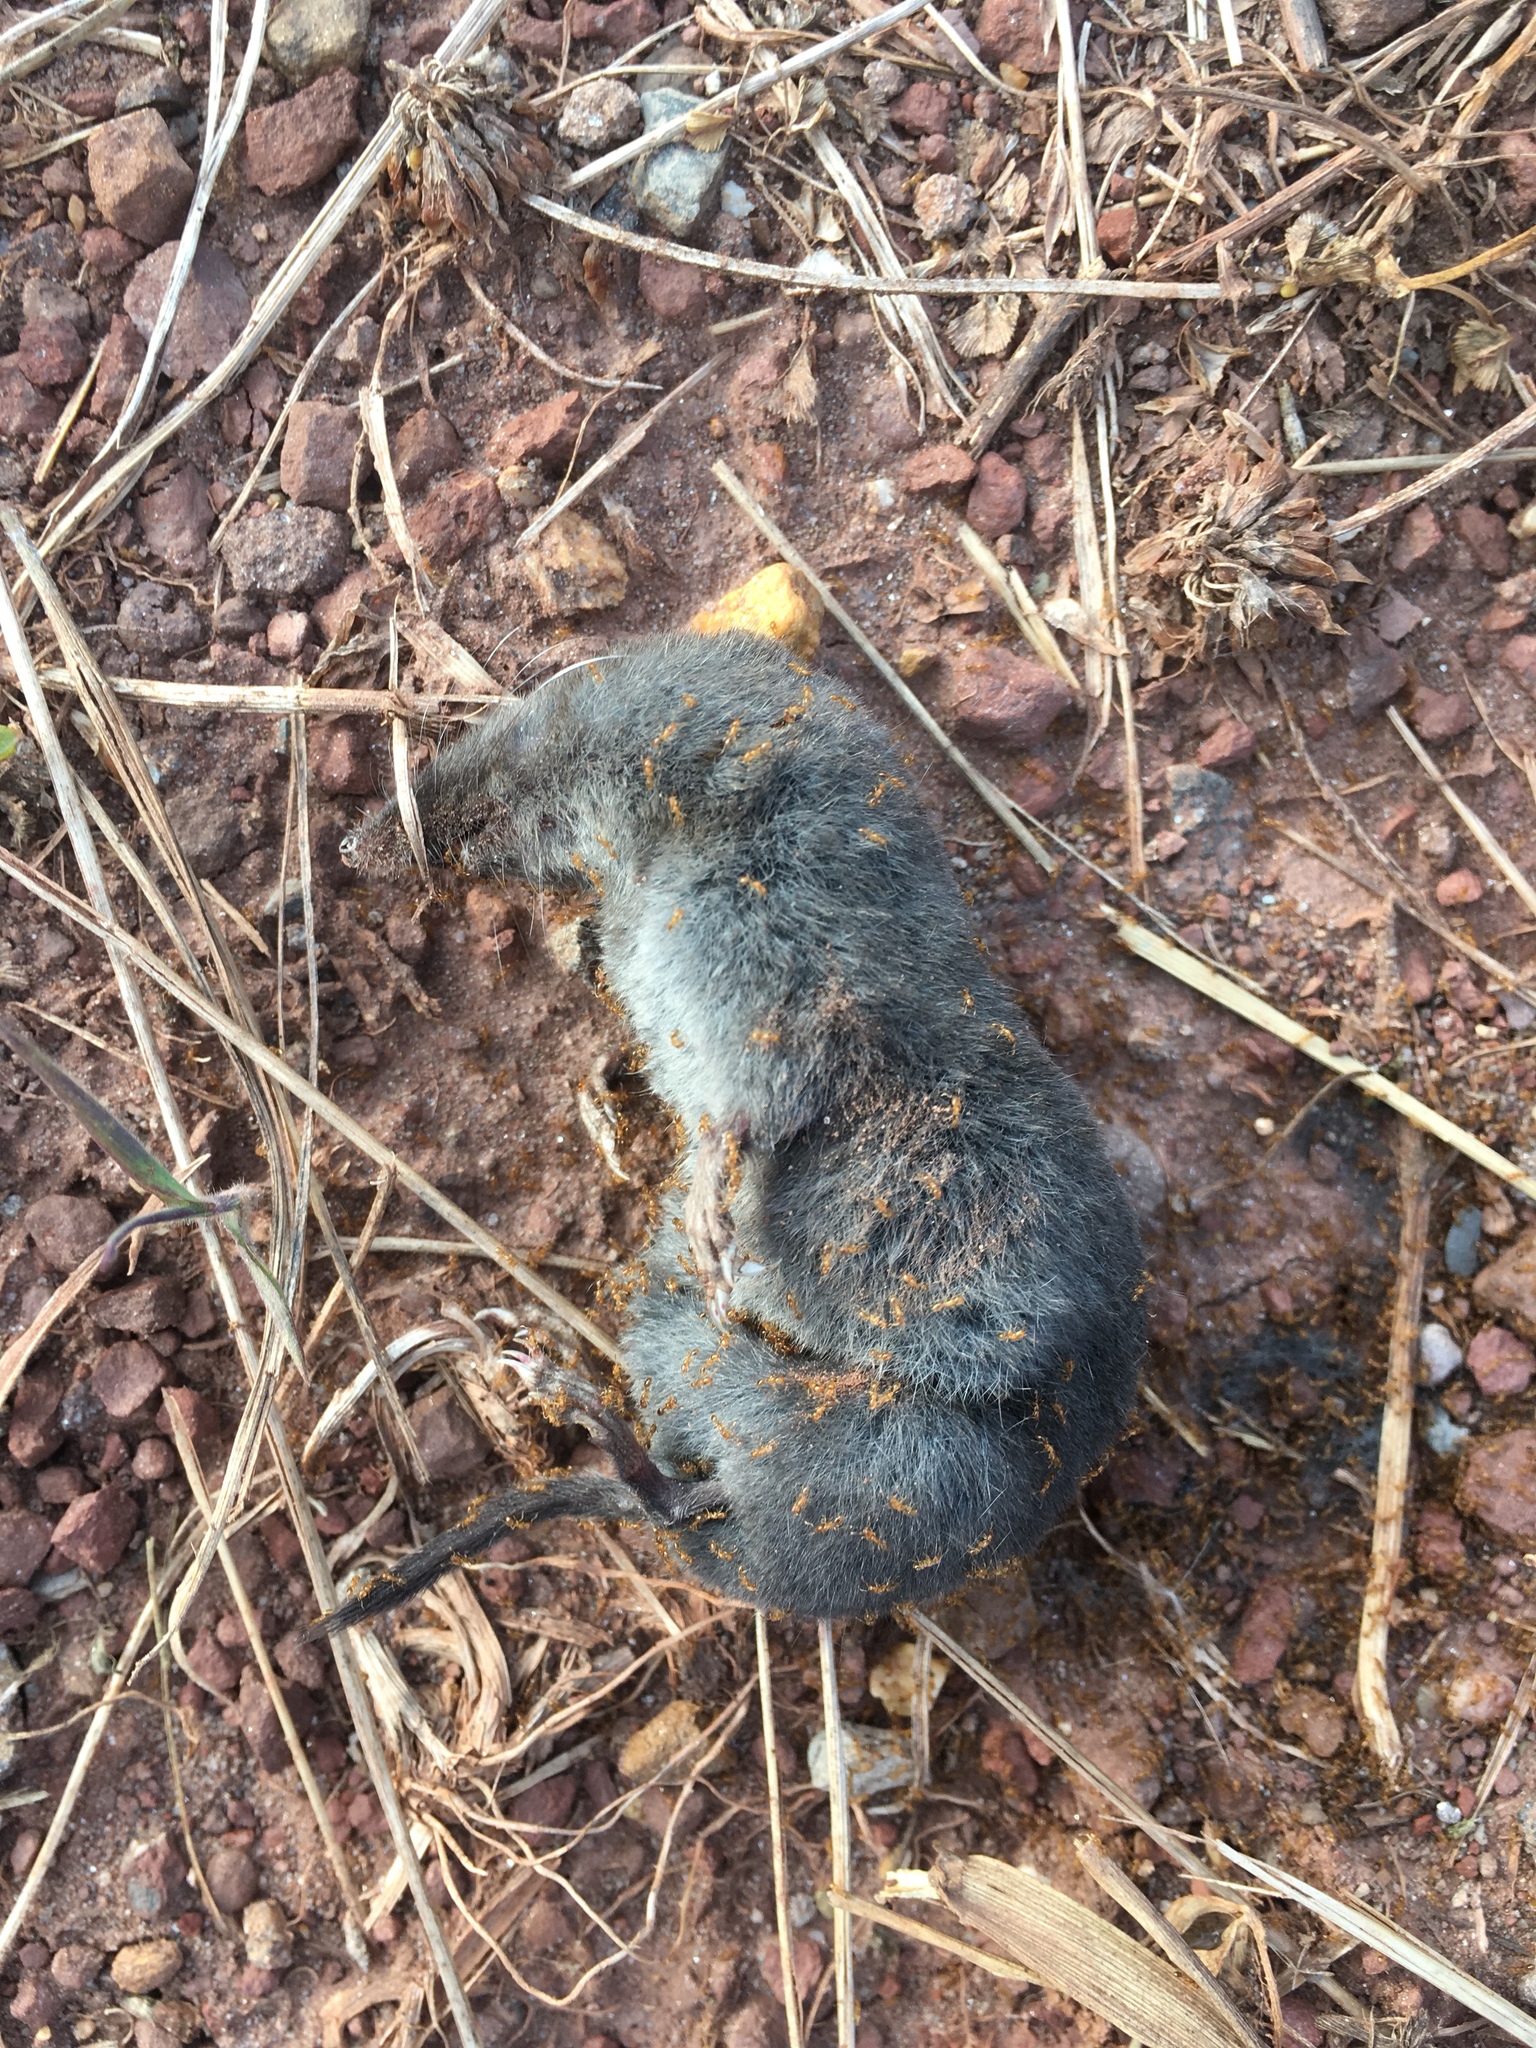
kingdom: Animalia
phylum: Chordata
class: Mammalia
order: Soricomorpha
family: Soricidae
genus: Blarina
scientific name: Blarina brevicauda
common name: Northern short-tailed shrew
